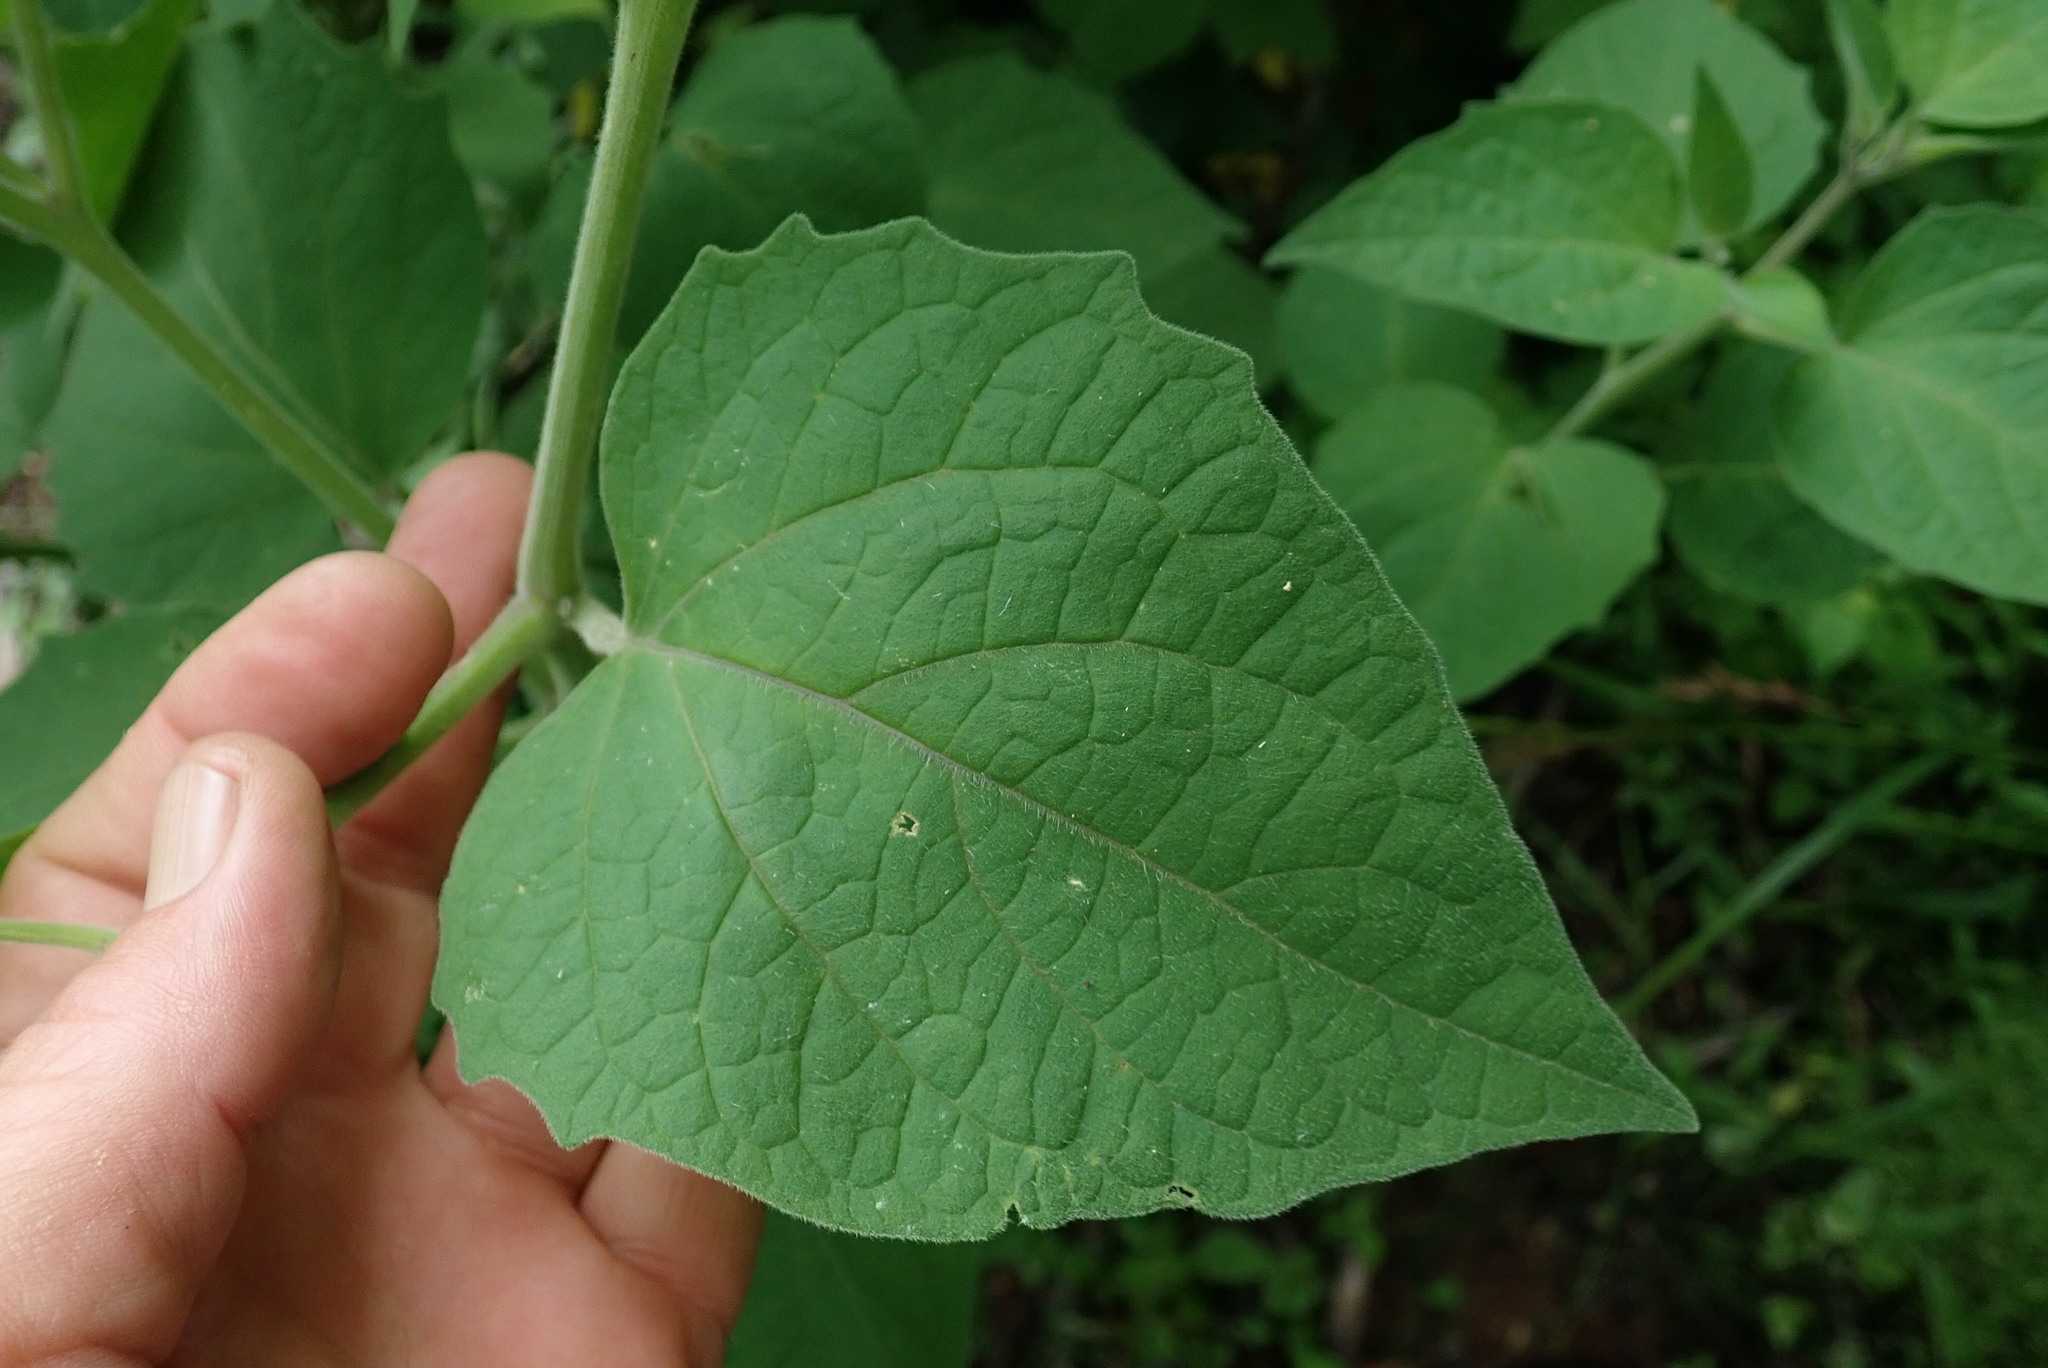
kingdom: Plantae
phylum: Tracheophyta
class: Magnoliopsida
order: Solanales
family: Solanaceae
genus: Physalis
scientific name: Physalis peruviana
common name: Cape-gooseberry
